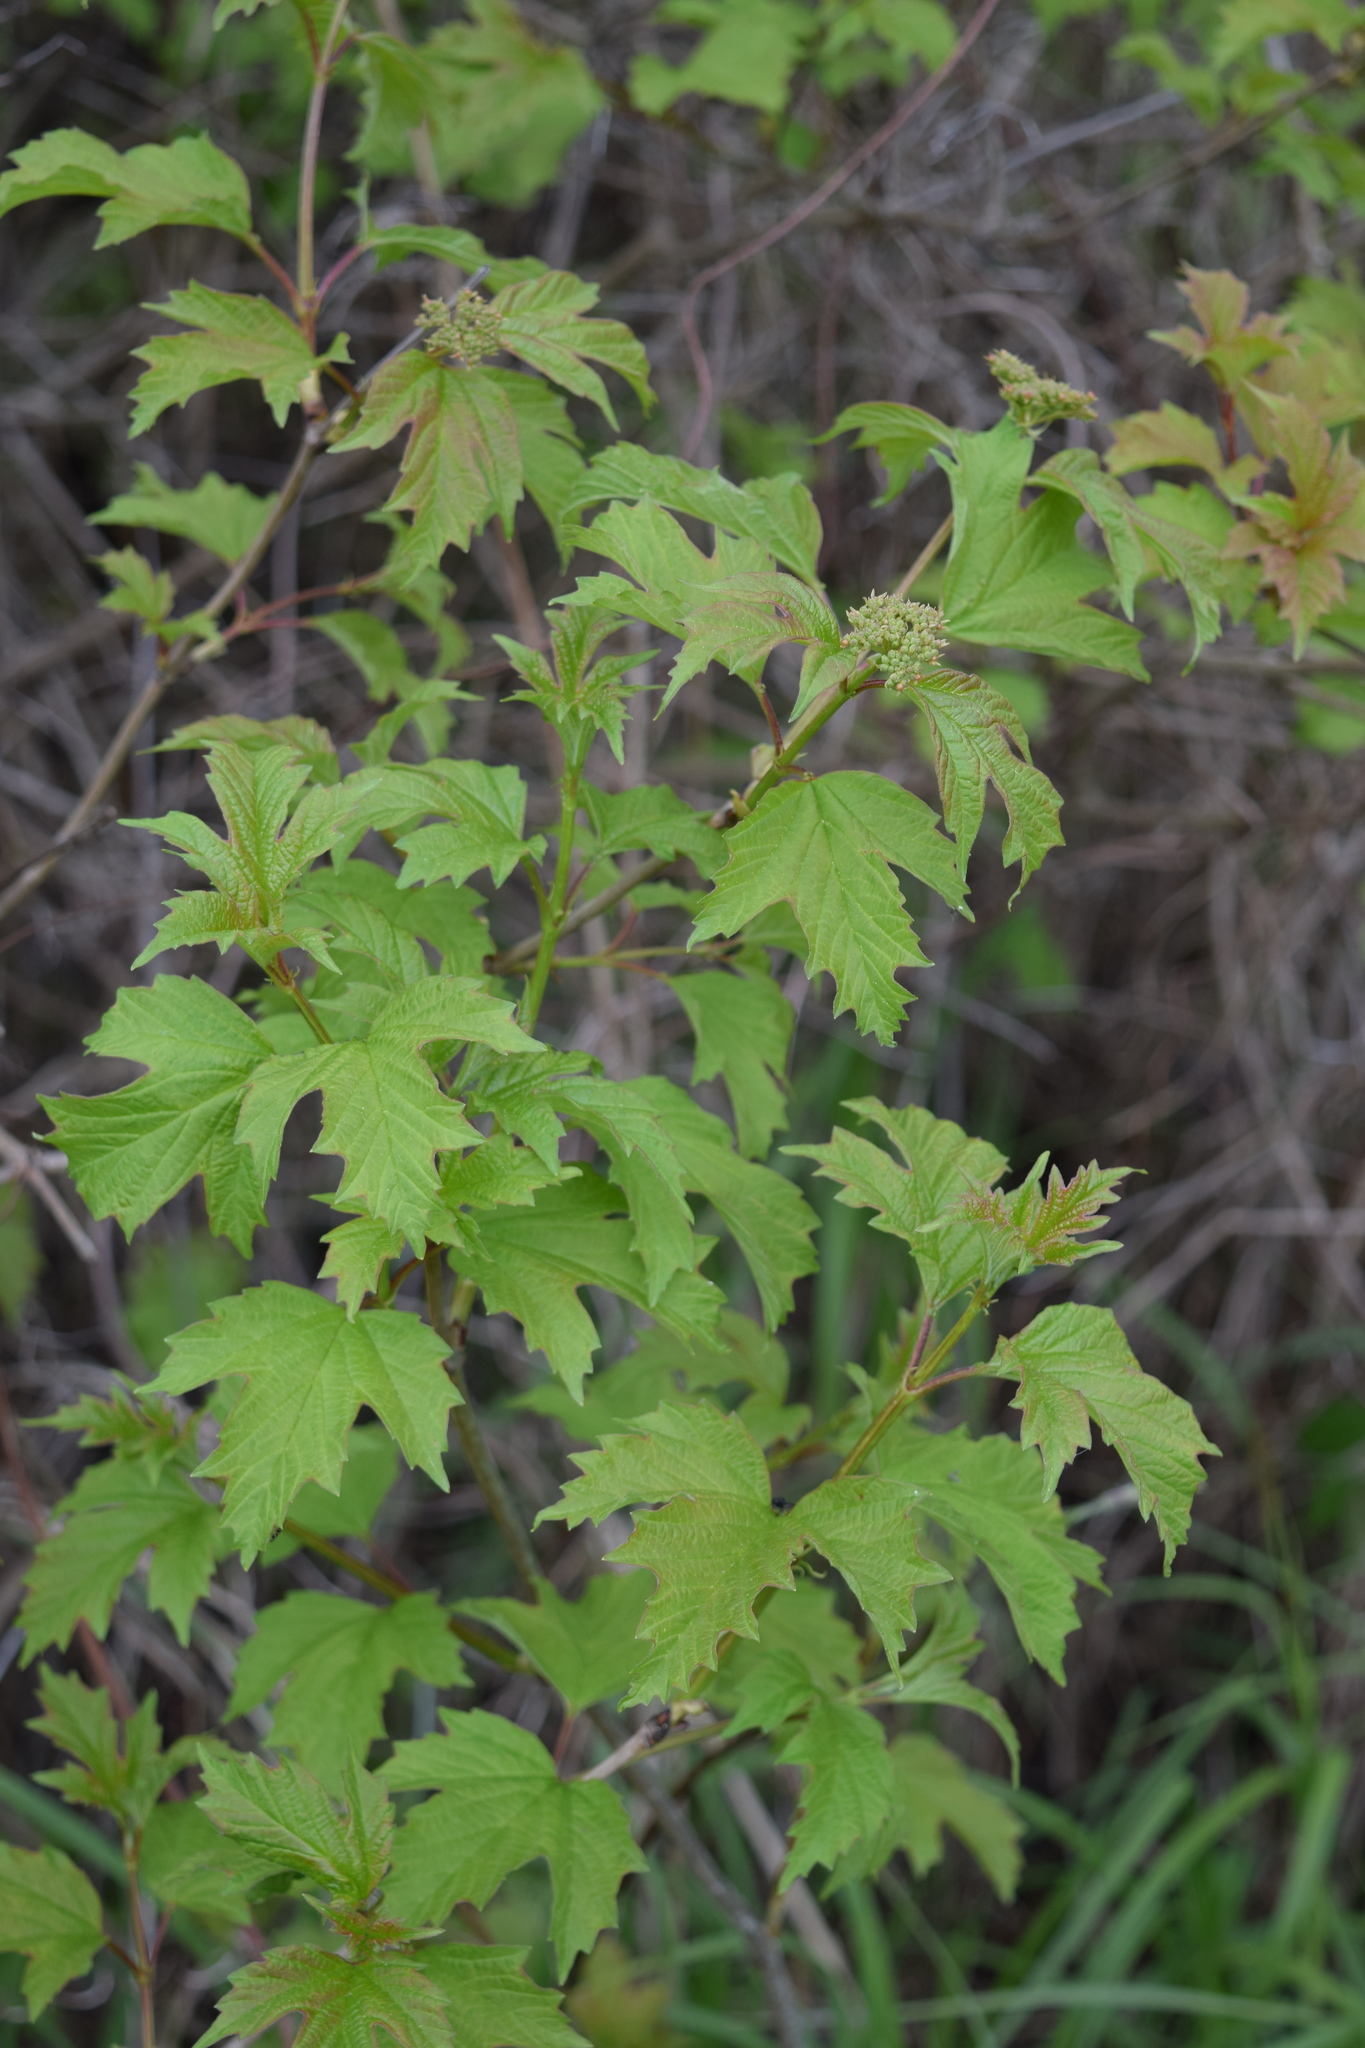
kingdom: Plantae
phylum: Tracheophyta
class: Magnoliopsida
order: Dipsacales
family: Viburnaceae
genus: Viburnum
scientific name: Viburnum opulus
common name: Guelder-rose
